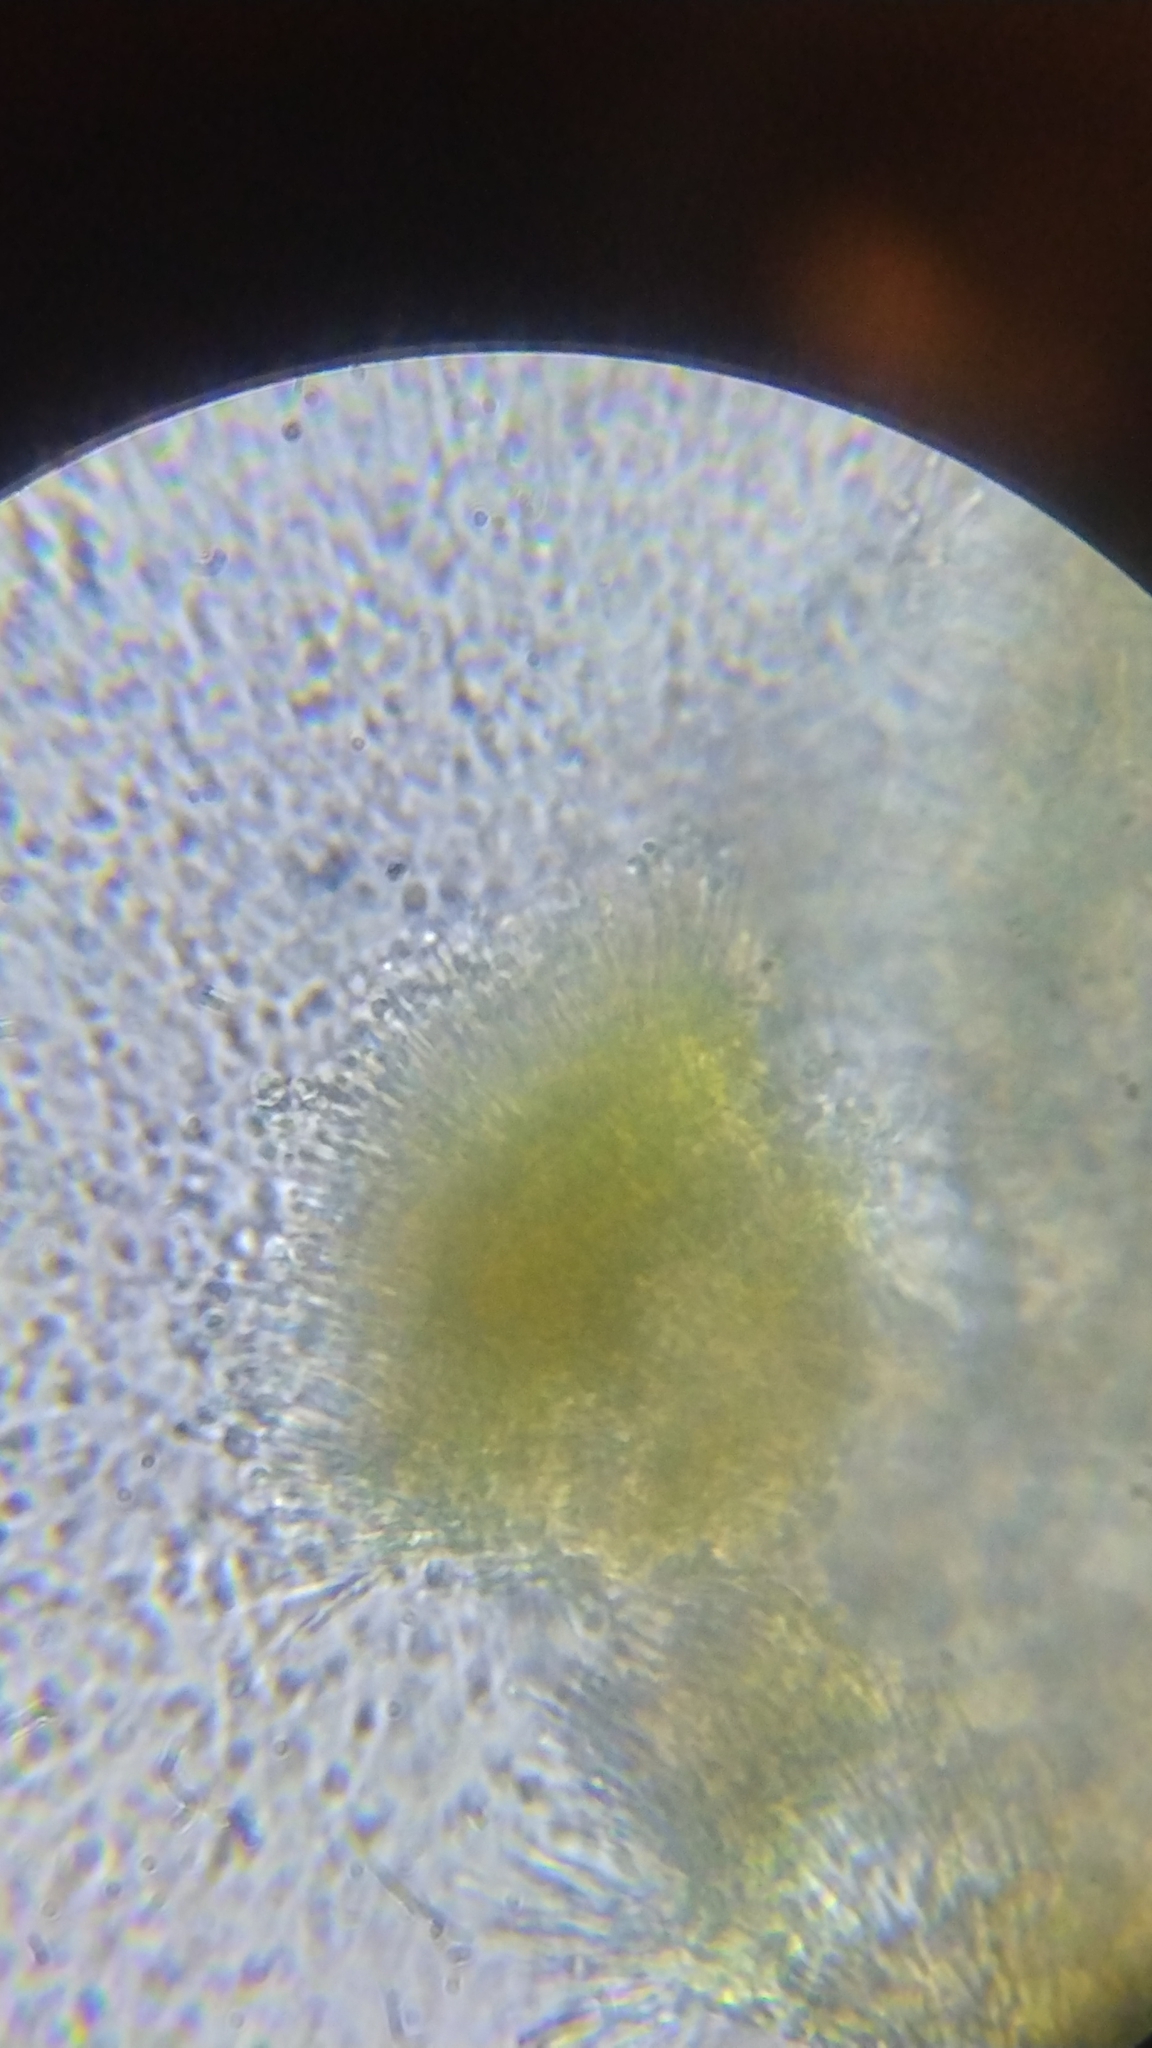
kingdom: Fungi
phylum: Ascomycota
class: Orbiliomycetes
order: Orbiliales
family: Orbiliaceae
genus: Orbilia
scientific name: Orbilia crocina
